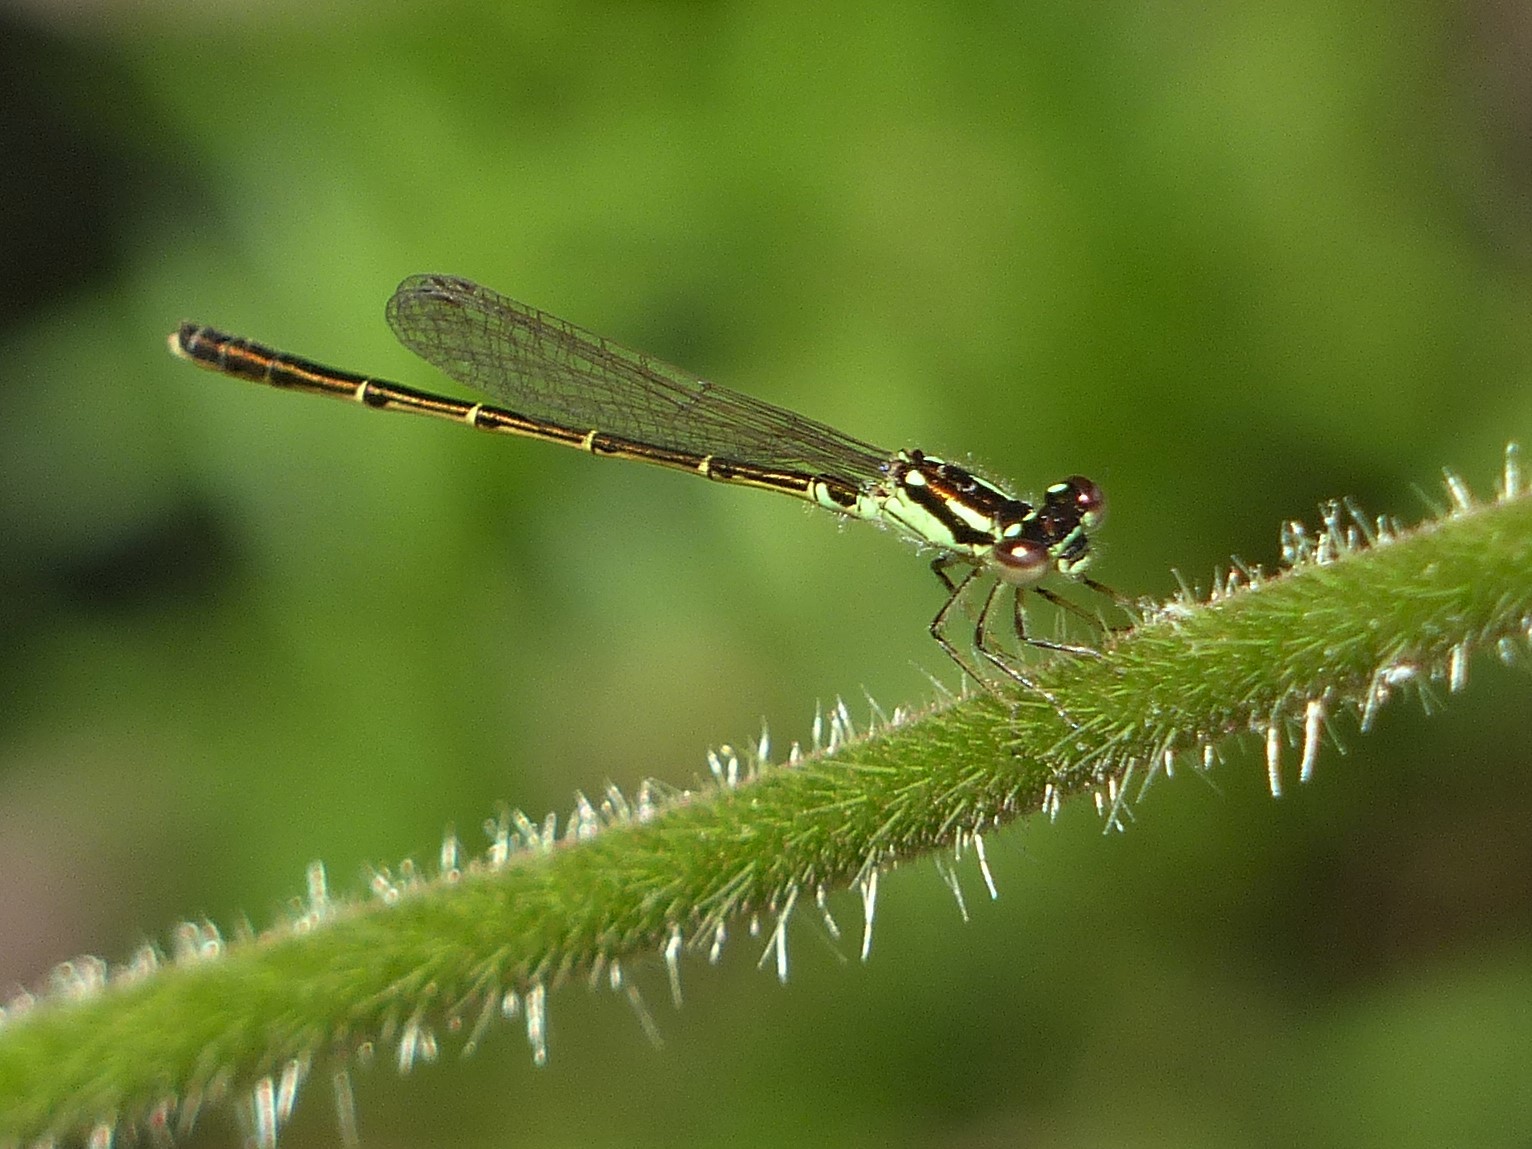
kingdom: Animalia
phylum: Arthropoda
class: Insecta
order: Odonata
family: Coenagrionidae
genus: Ischnura
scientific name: Ischnura posita
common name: Fragile forktail
